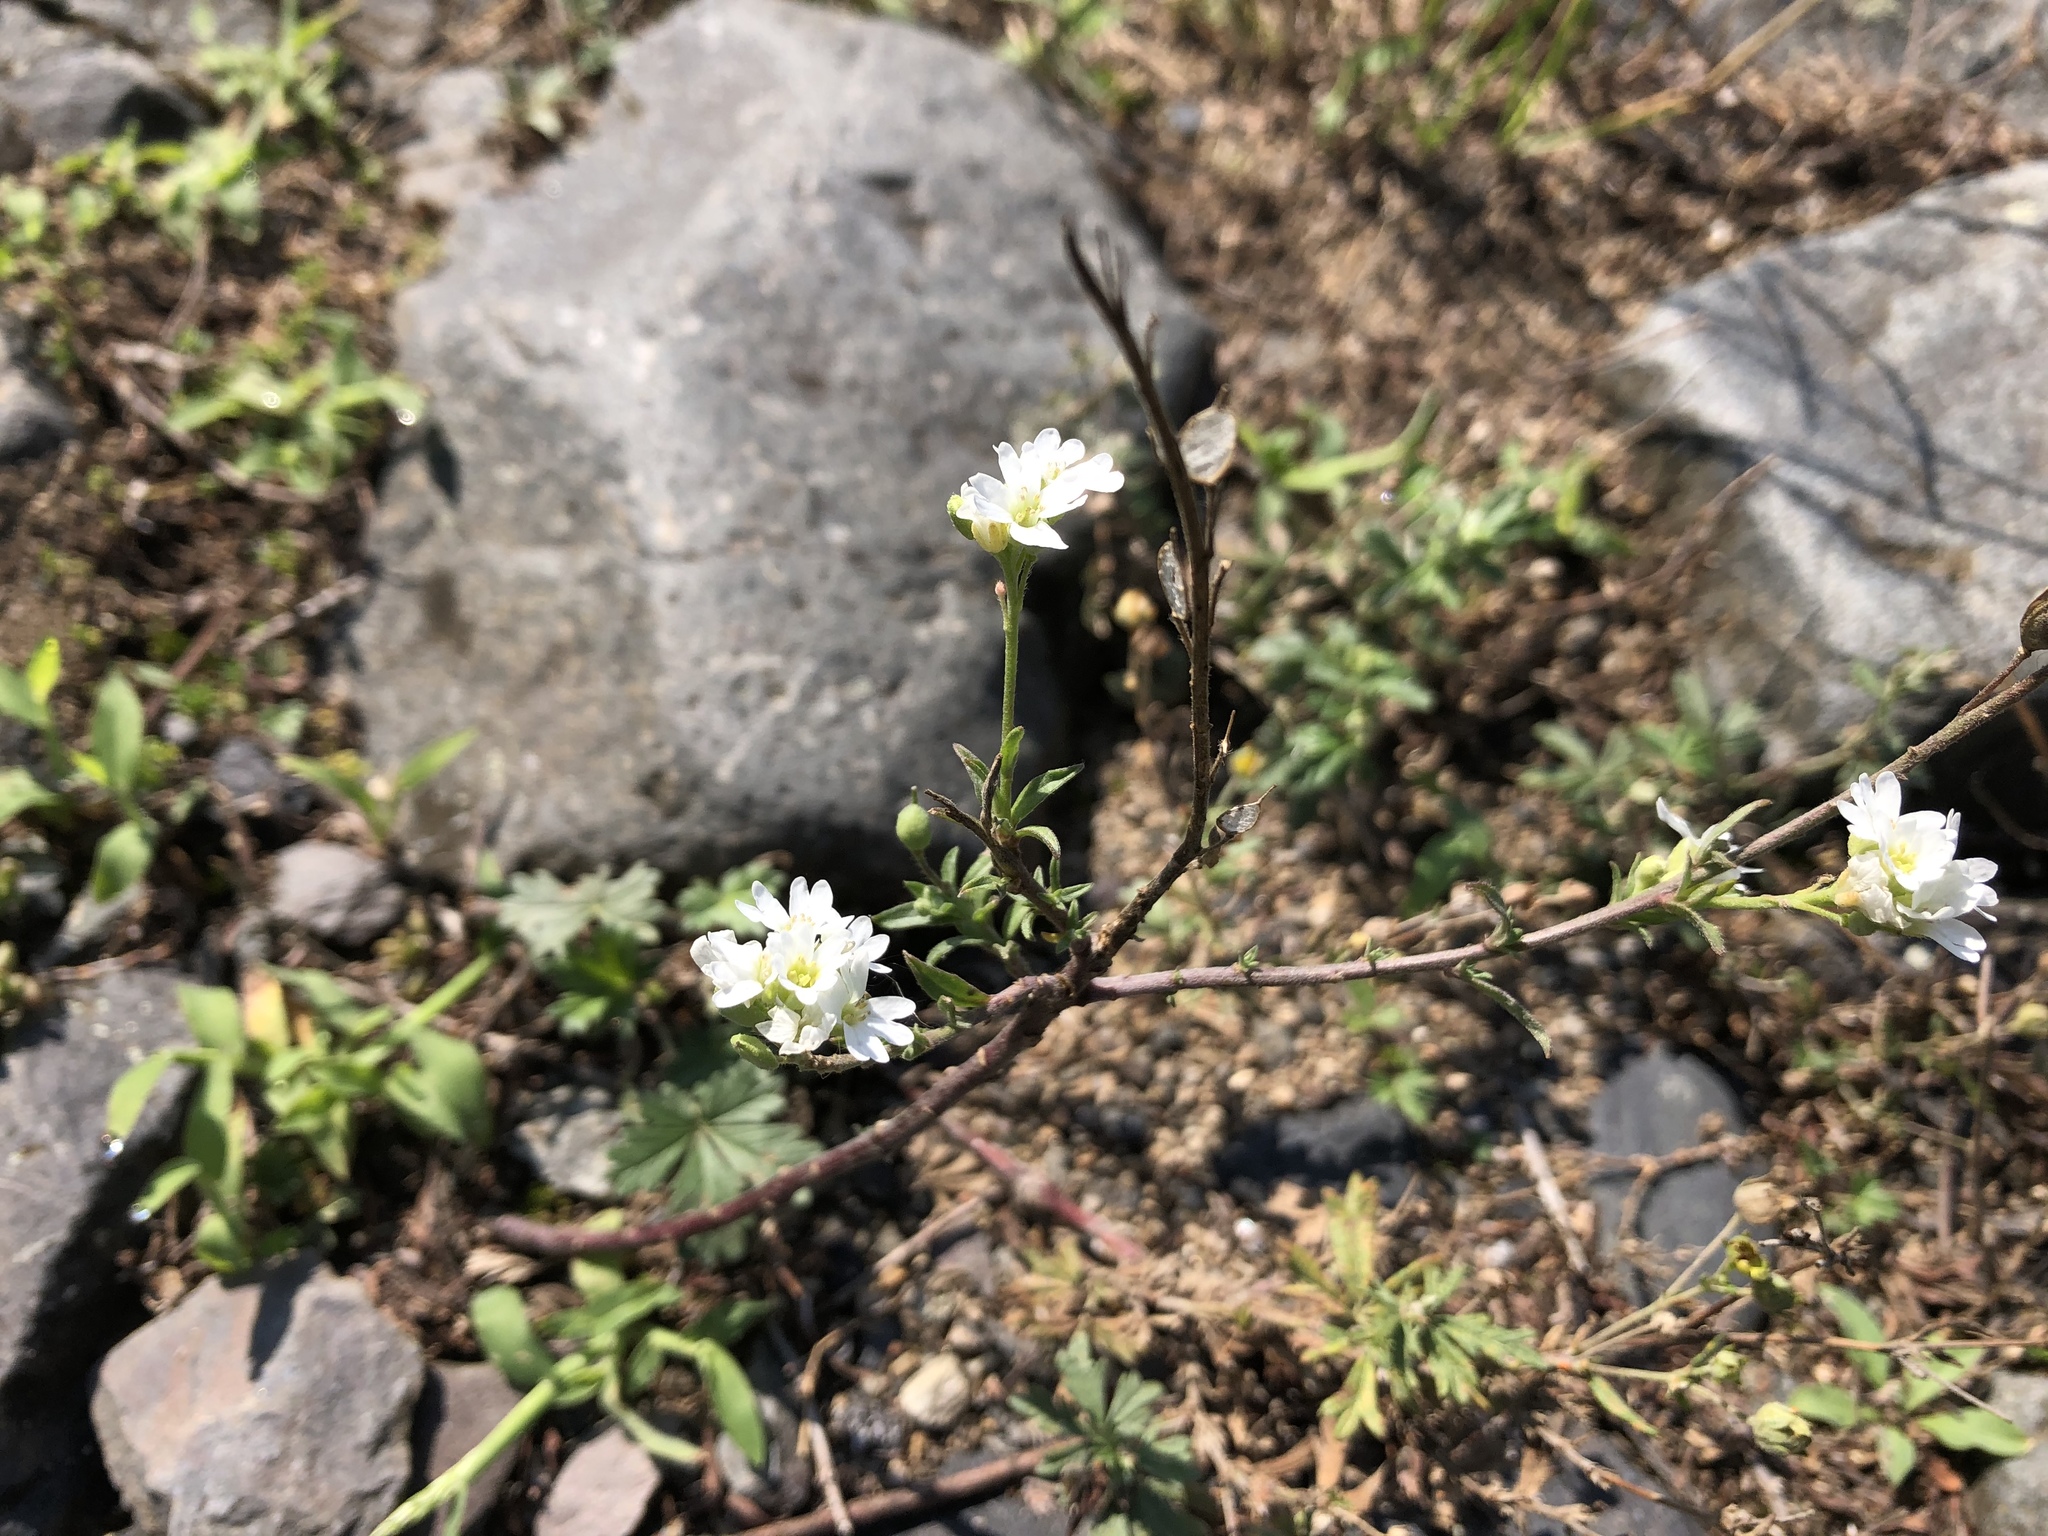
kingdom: Plantae
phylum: Tracheophyta
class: Magnoliopsida
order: Brassicales
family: Brassicaceae
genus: Berteroa
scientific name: Berteroa incana
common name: Hoary alison
